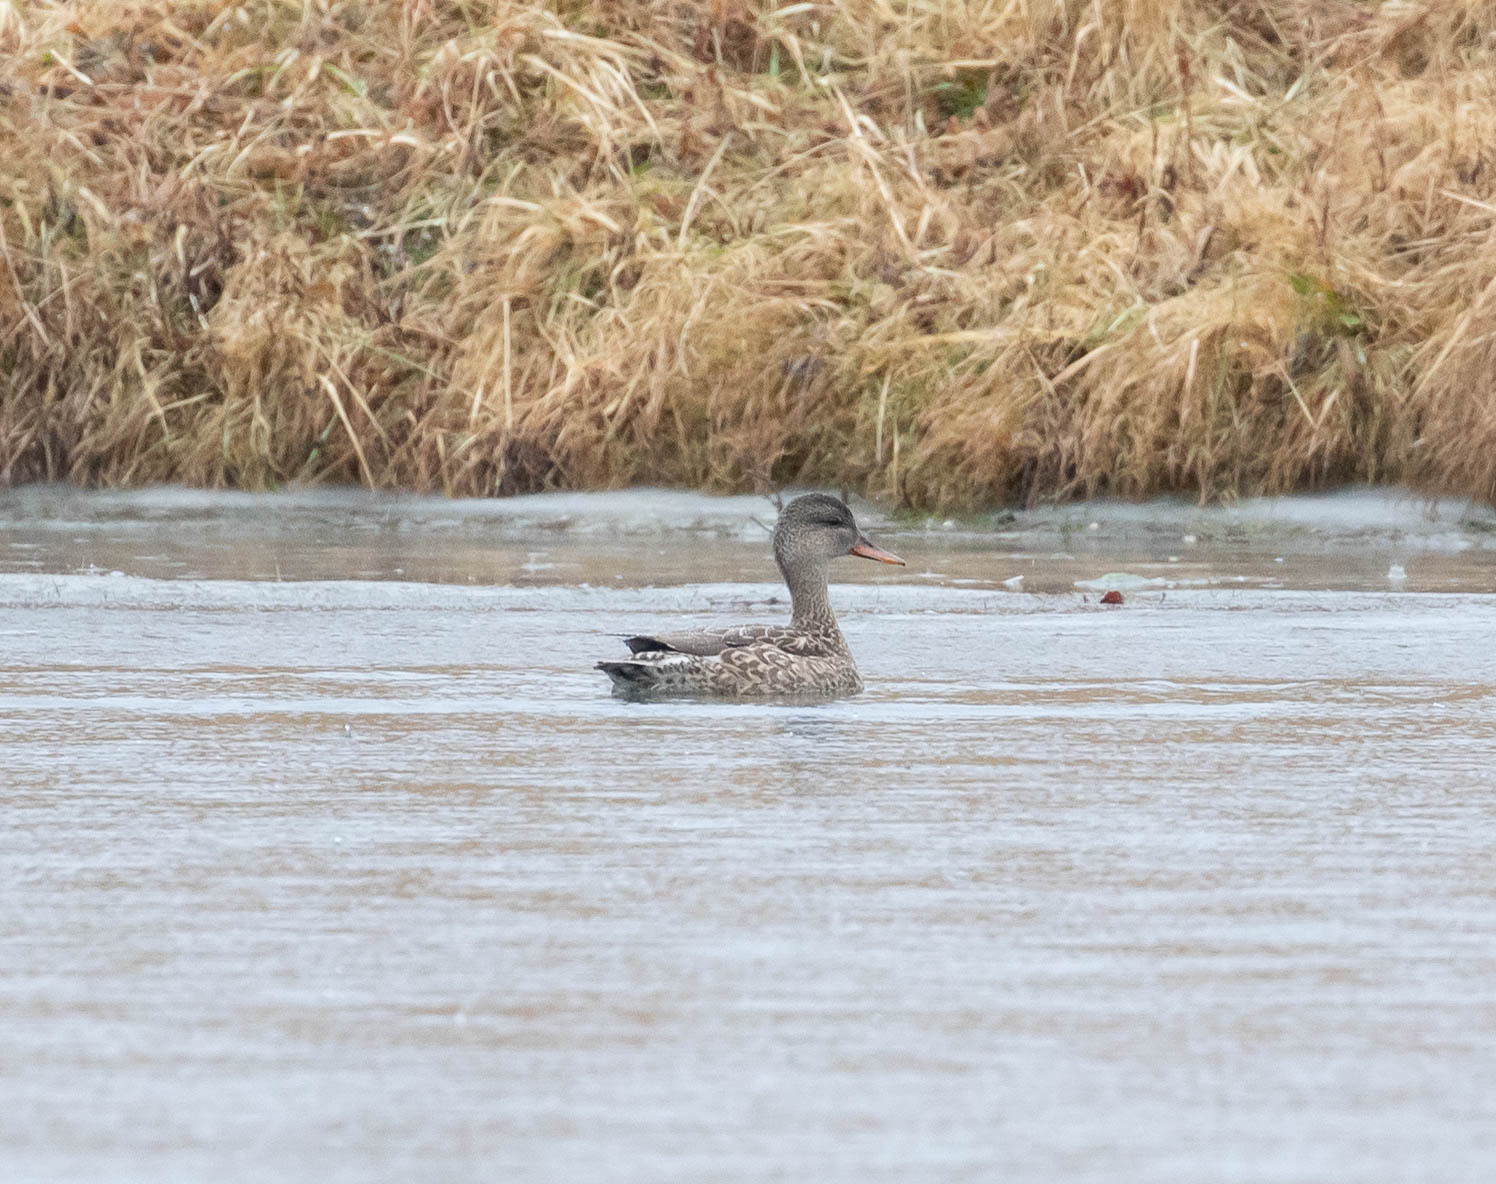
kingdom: Animalia
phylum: Chordata
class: Aves
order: Anseriformes
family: Anatidae
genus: Mareca
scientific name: Mareca strepera
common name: Gadwall
